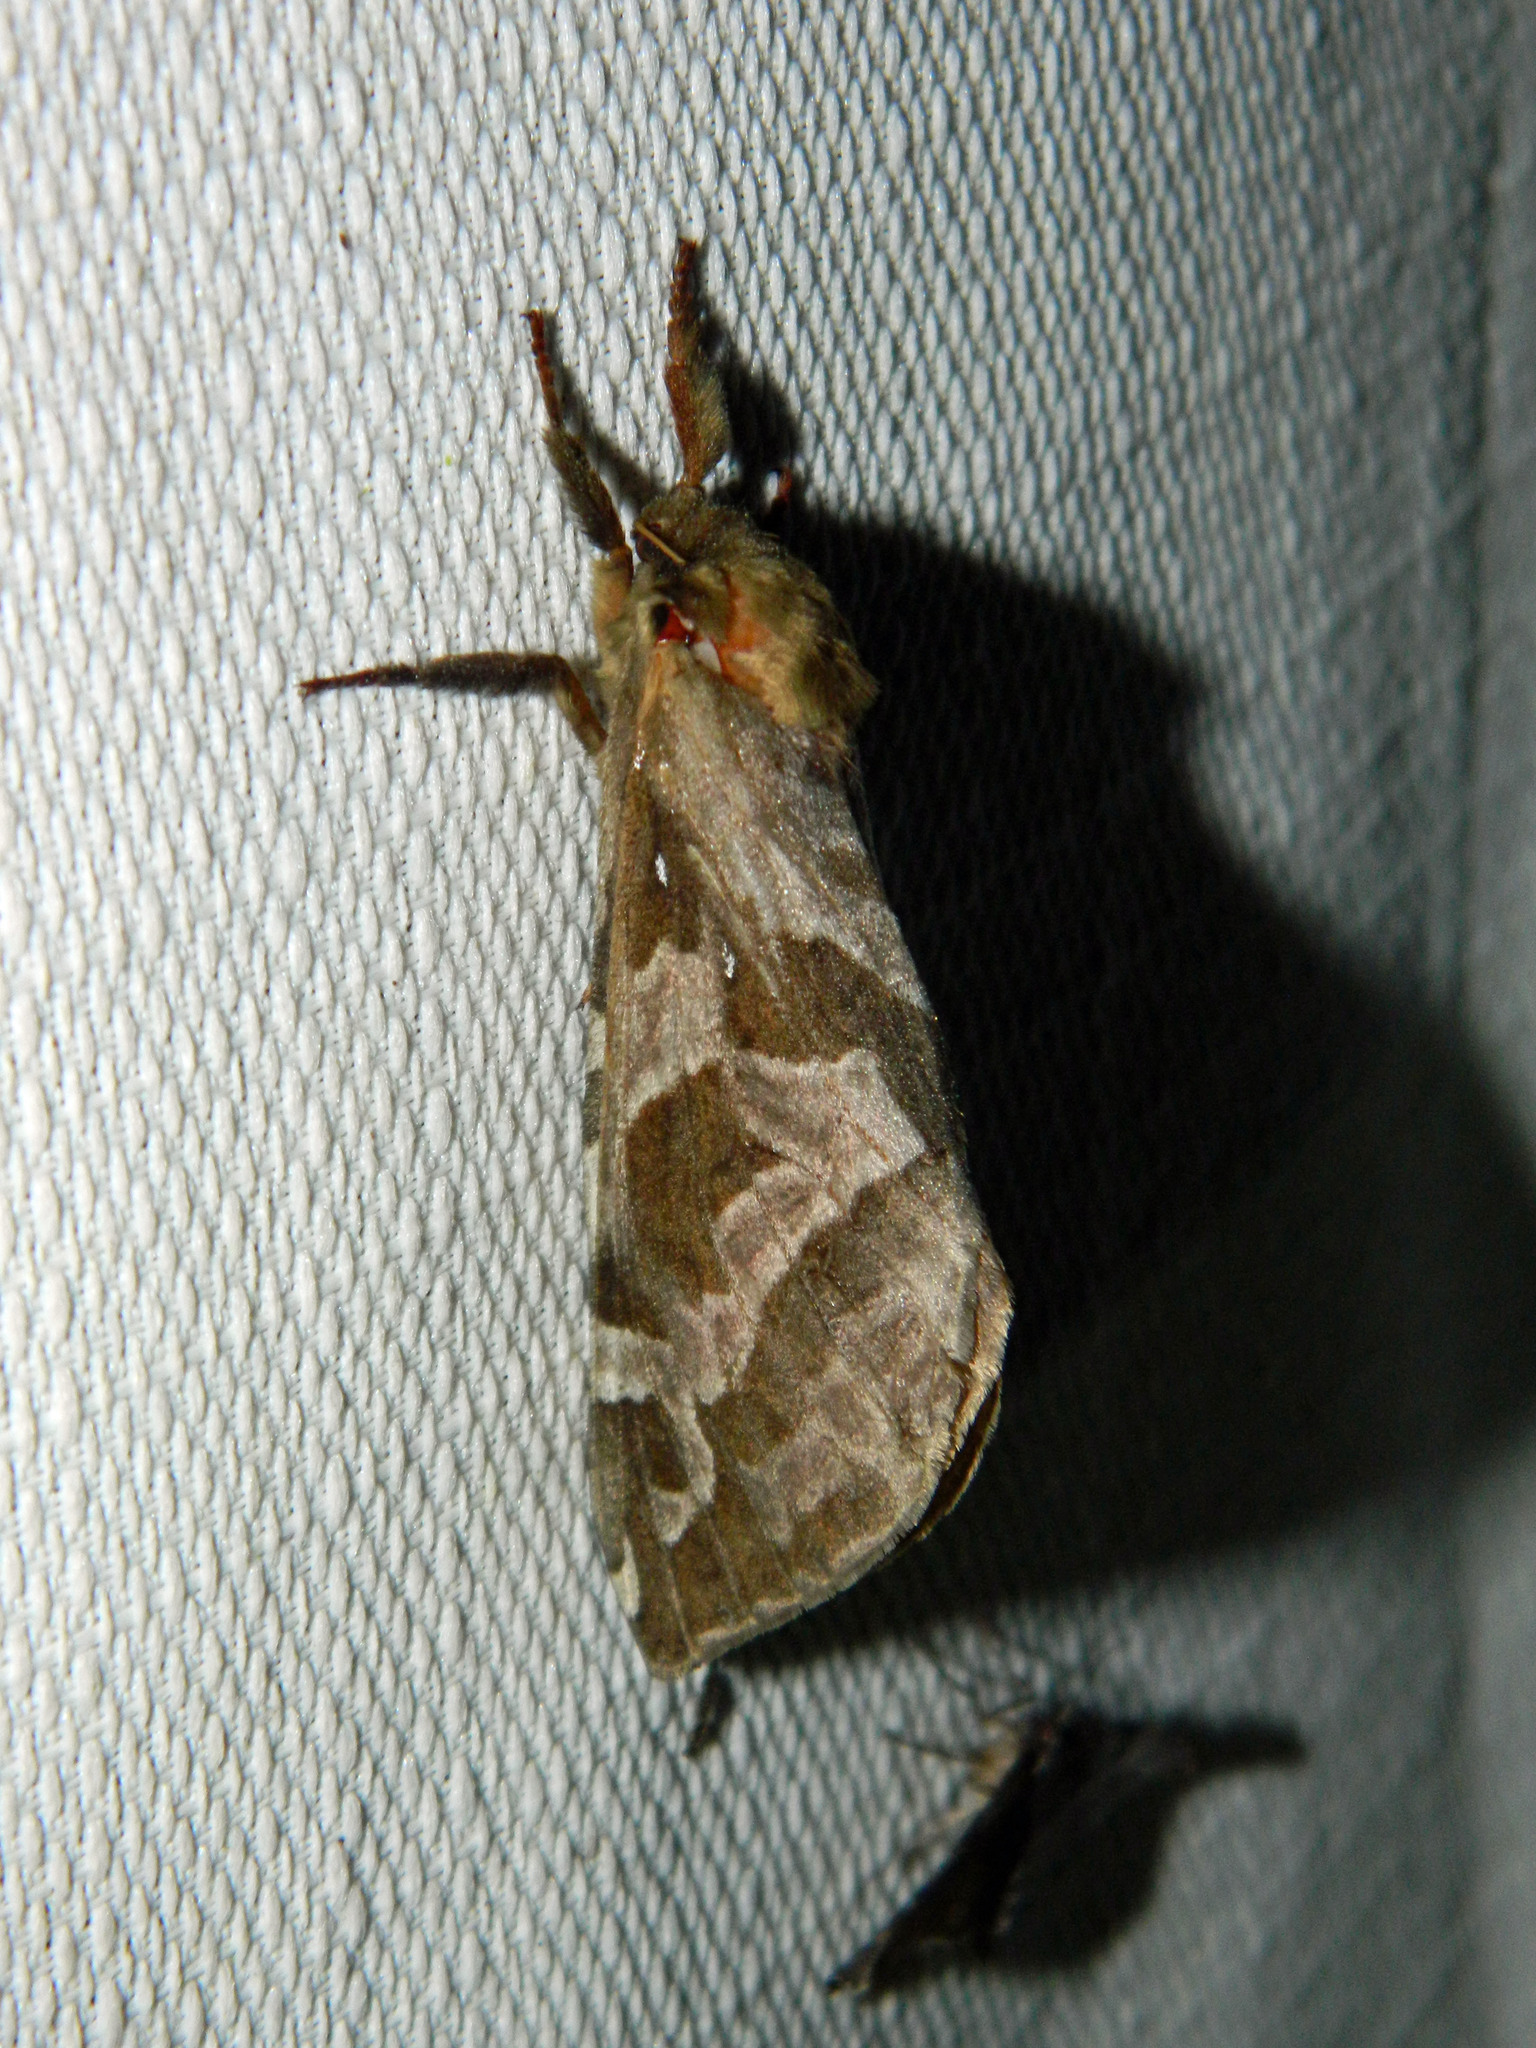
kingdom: Animalia
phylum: Arthropoda
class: Insecta
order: Lepidoptera
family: Hepialidae
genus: Sthenopis
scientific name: Sthenopis purpurascens
